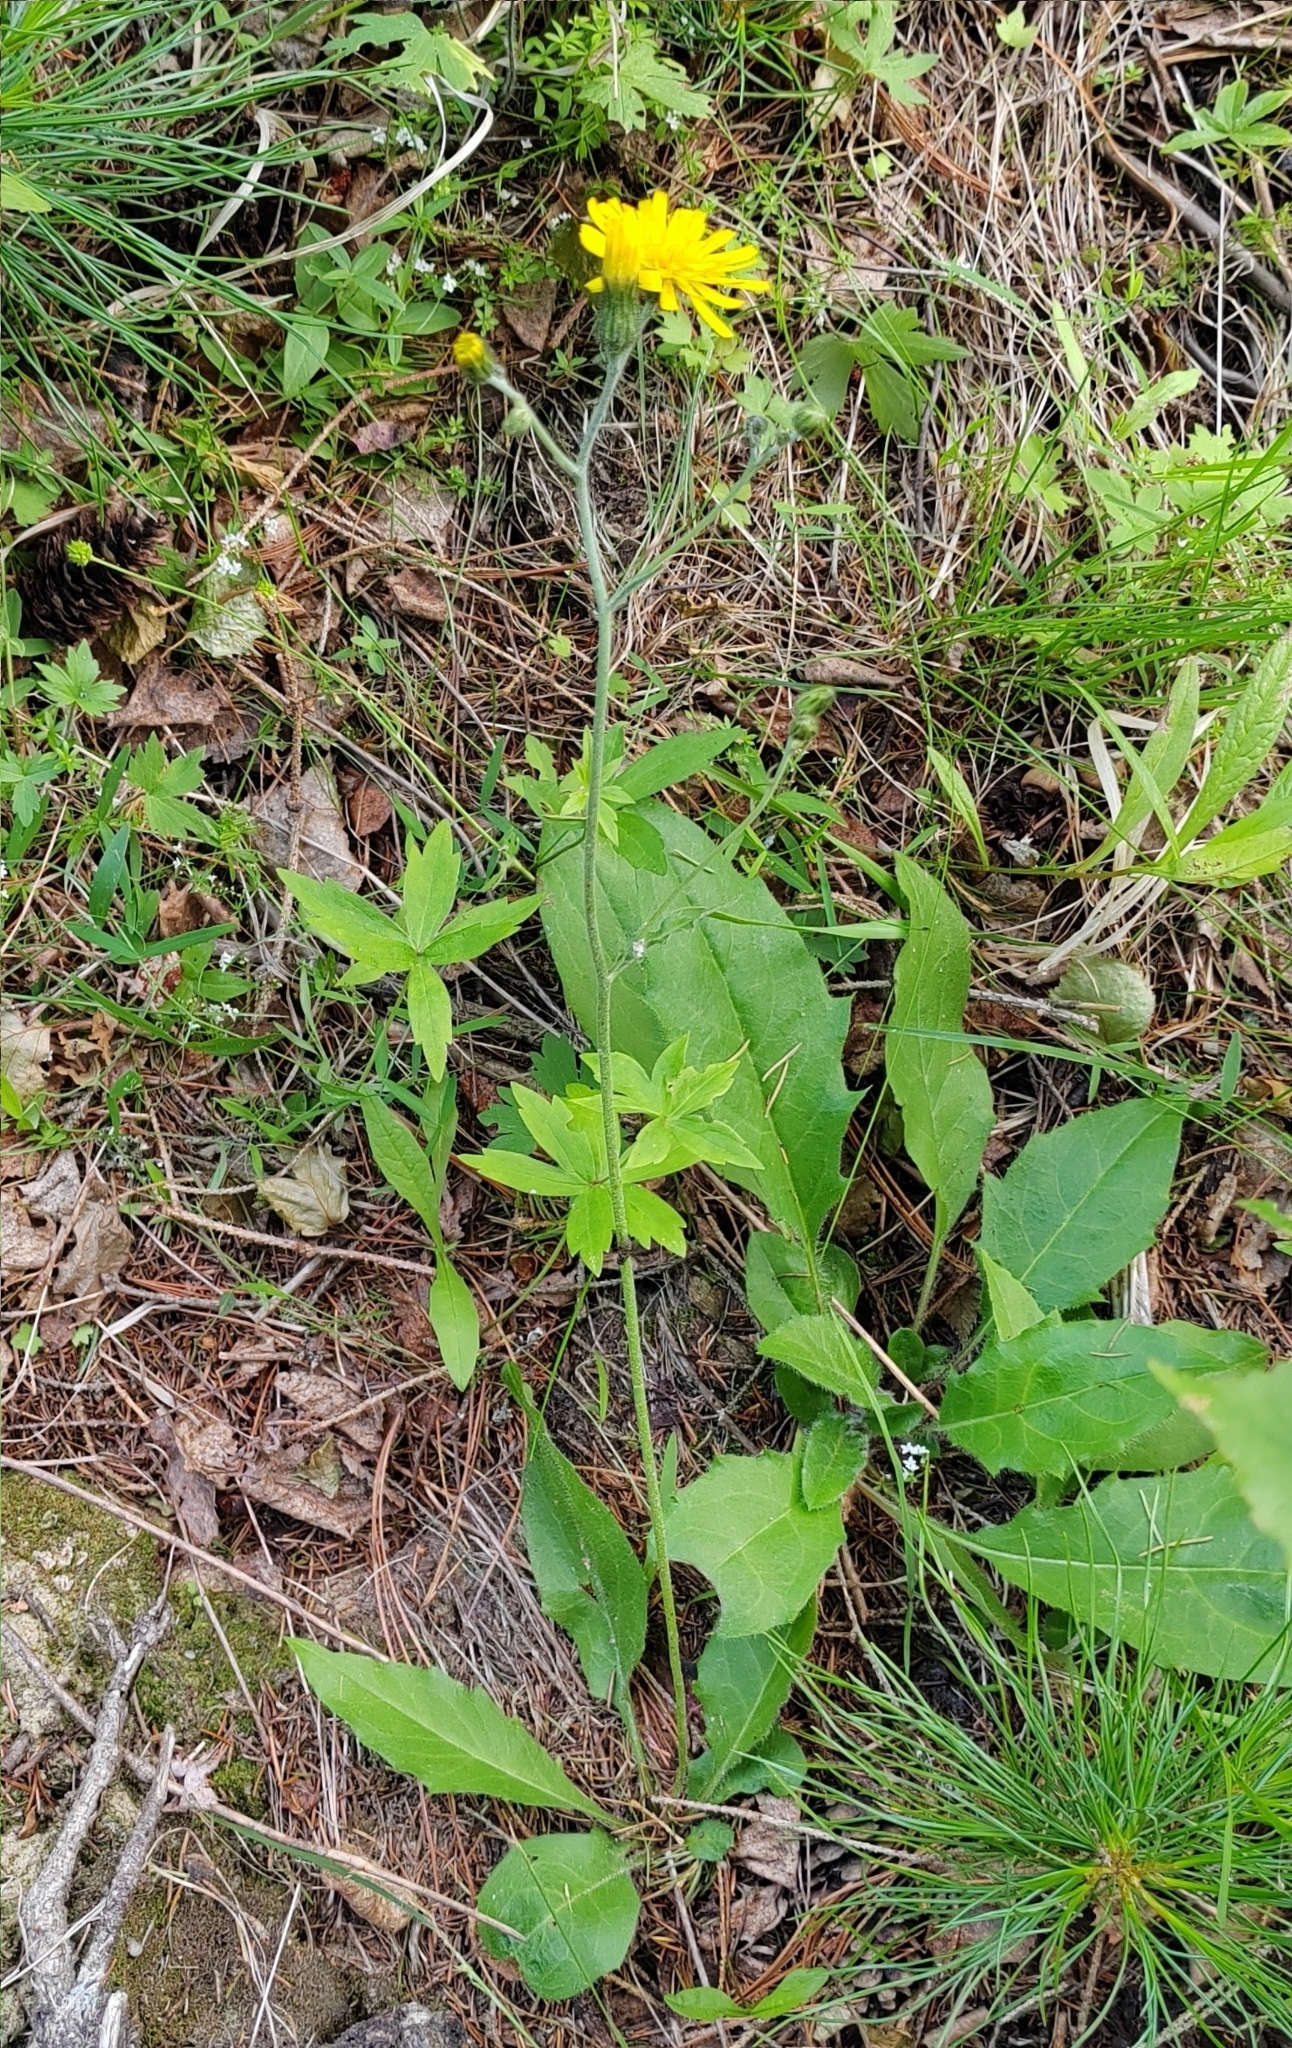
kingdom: Plantae
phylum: Tracheophyta
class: Magnoliopsida
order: Asterales
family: Asteraceae
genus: Hieracium
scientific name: Hieracium murorum
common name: Wall hawkweed
